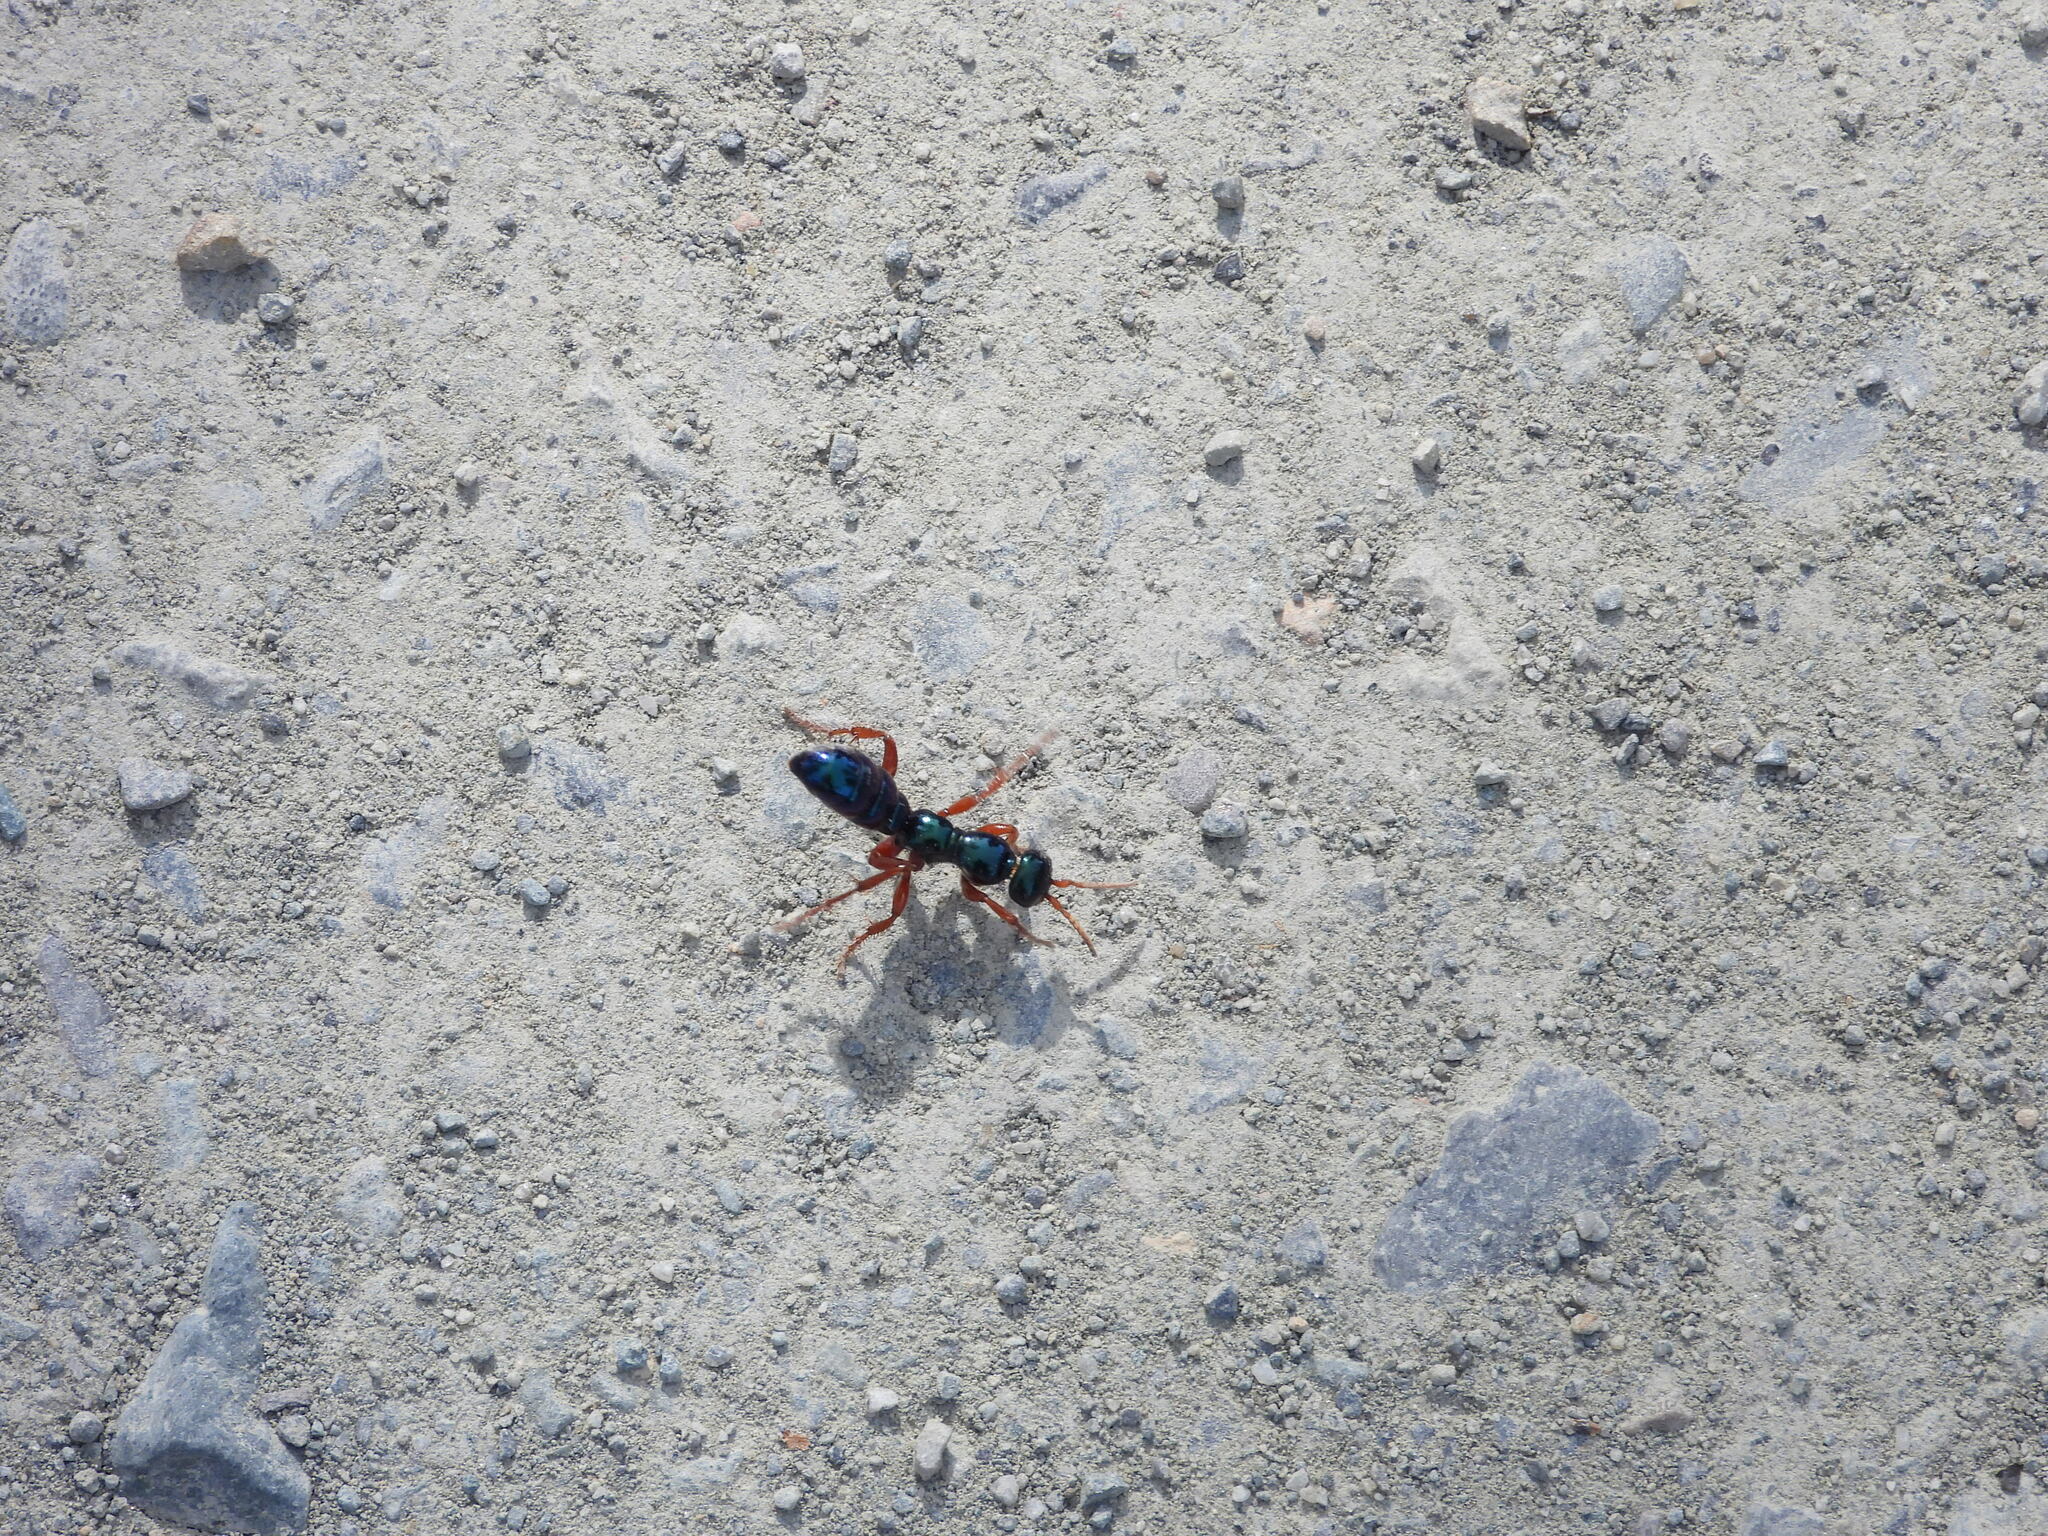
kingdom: Animalia
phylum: Arthropoda
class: Insecta
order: Hymenoptera
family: Tiphiidae
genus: Diamma
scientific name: Diamma
